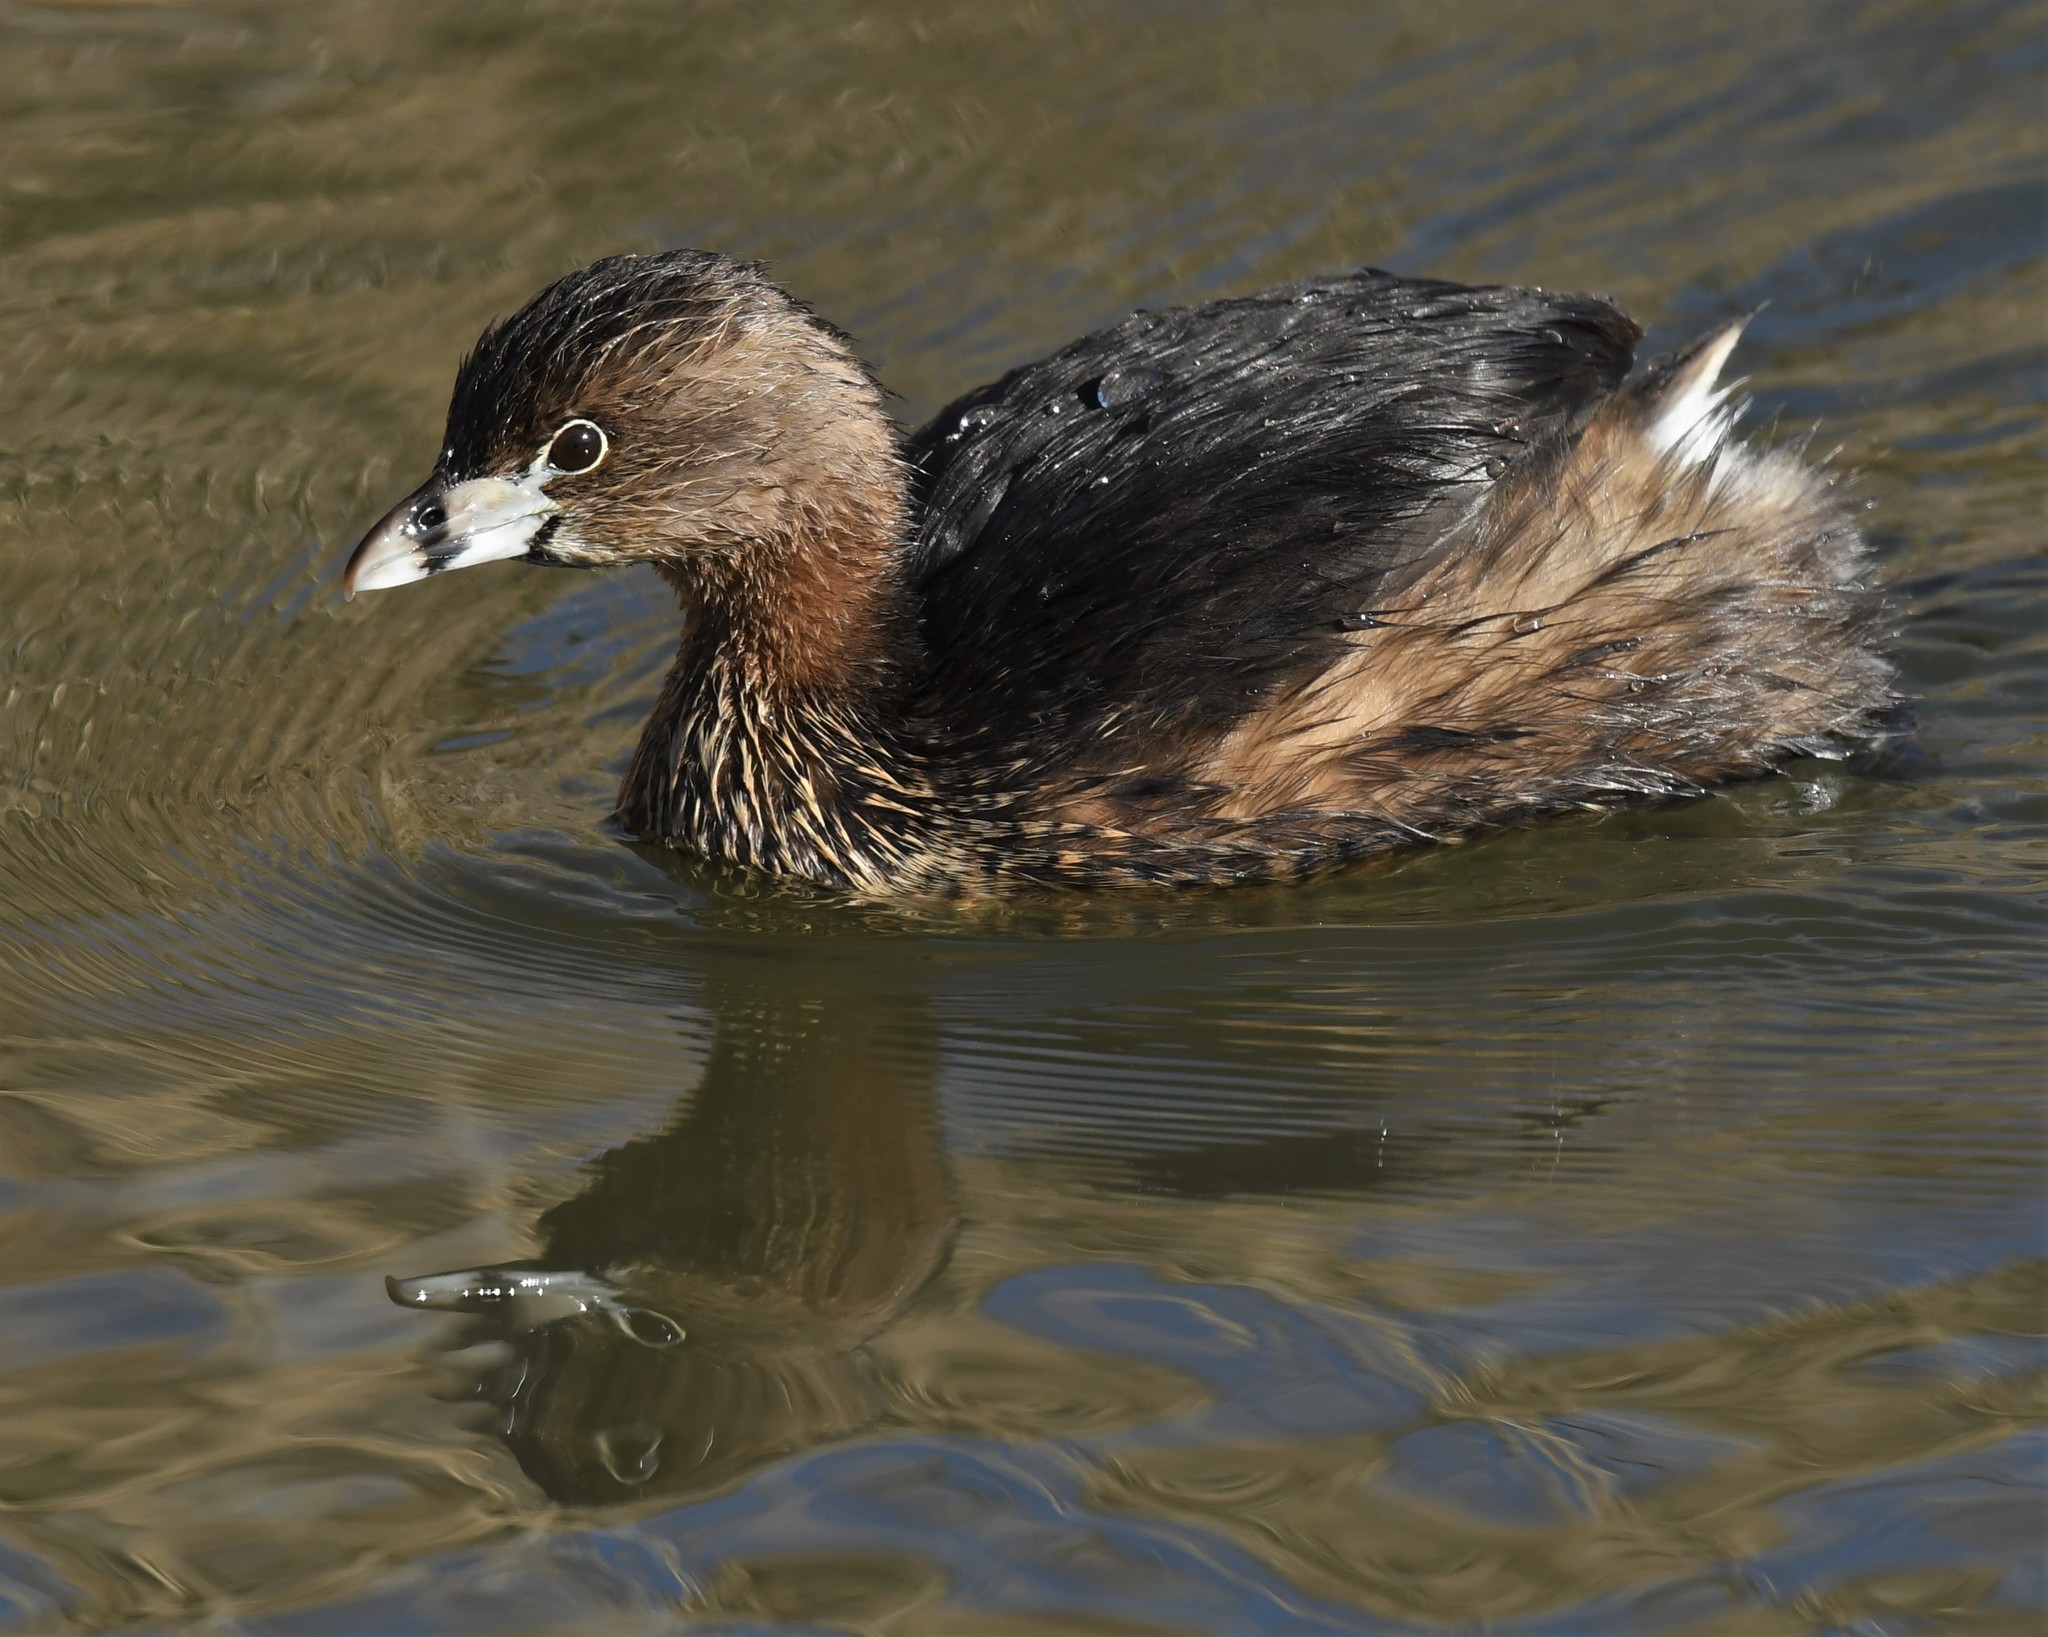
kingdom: Animalia
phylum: Chordata
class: Aves
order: Podicipediformes
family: Podicipedidae
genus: Podilymbus
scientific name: Podilymbus podiceps
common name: Pied-billed grebe
